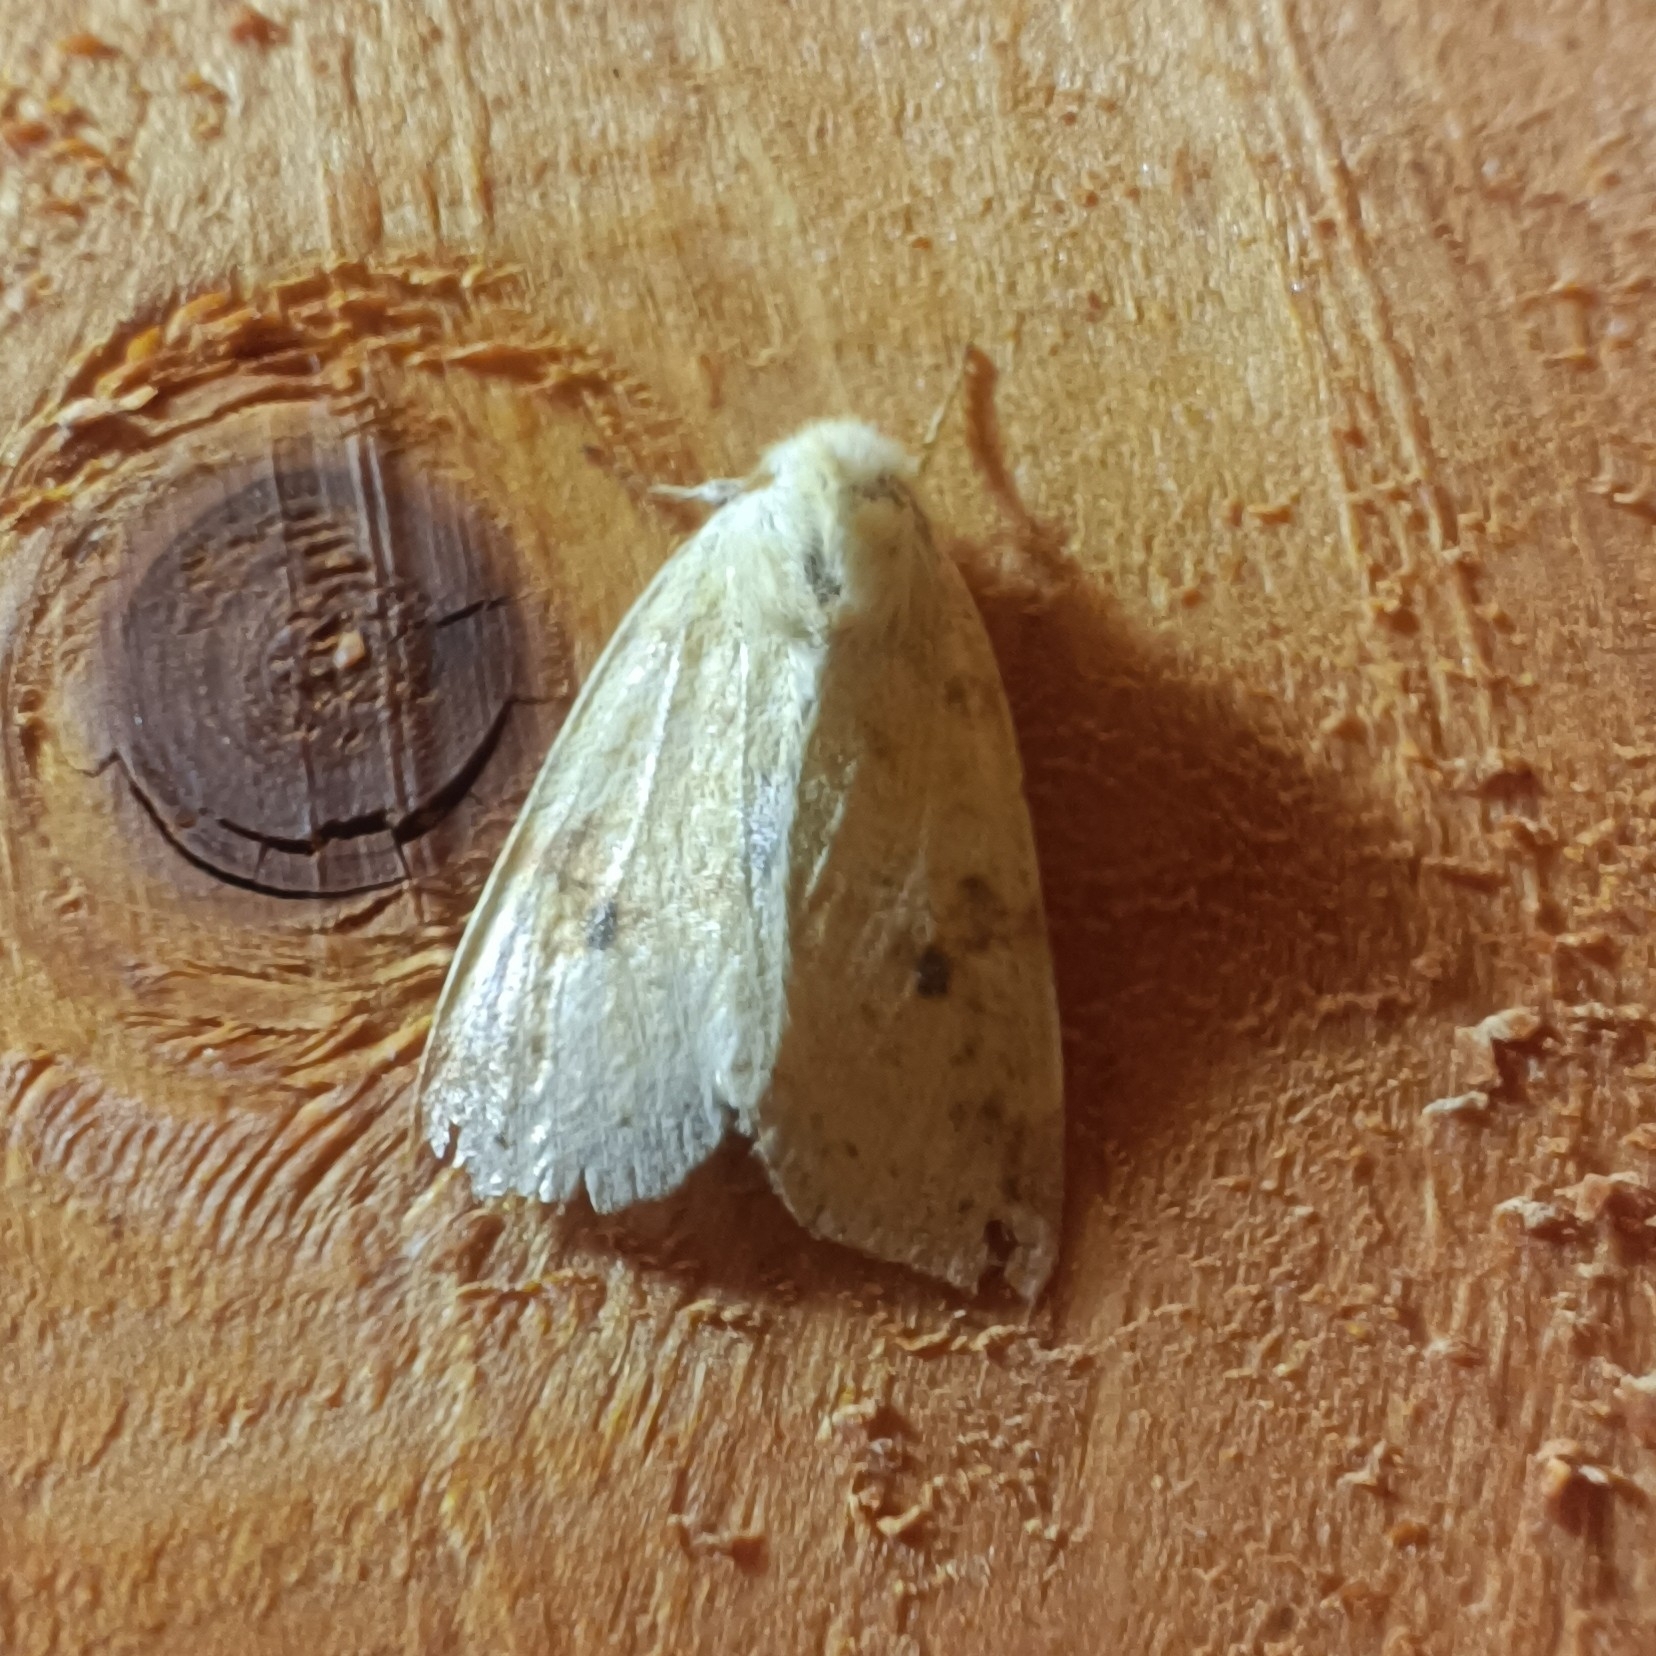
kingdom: Animalia
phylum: Arthropoda
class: Insecta
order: Lepidoptera
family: Noctuidae
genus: Xanthia
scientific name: Xanthia icteritia
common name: The sallow
